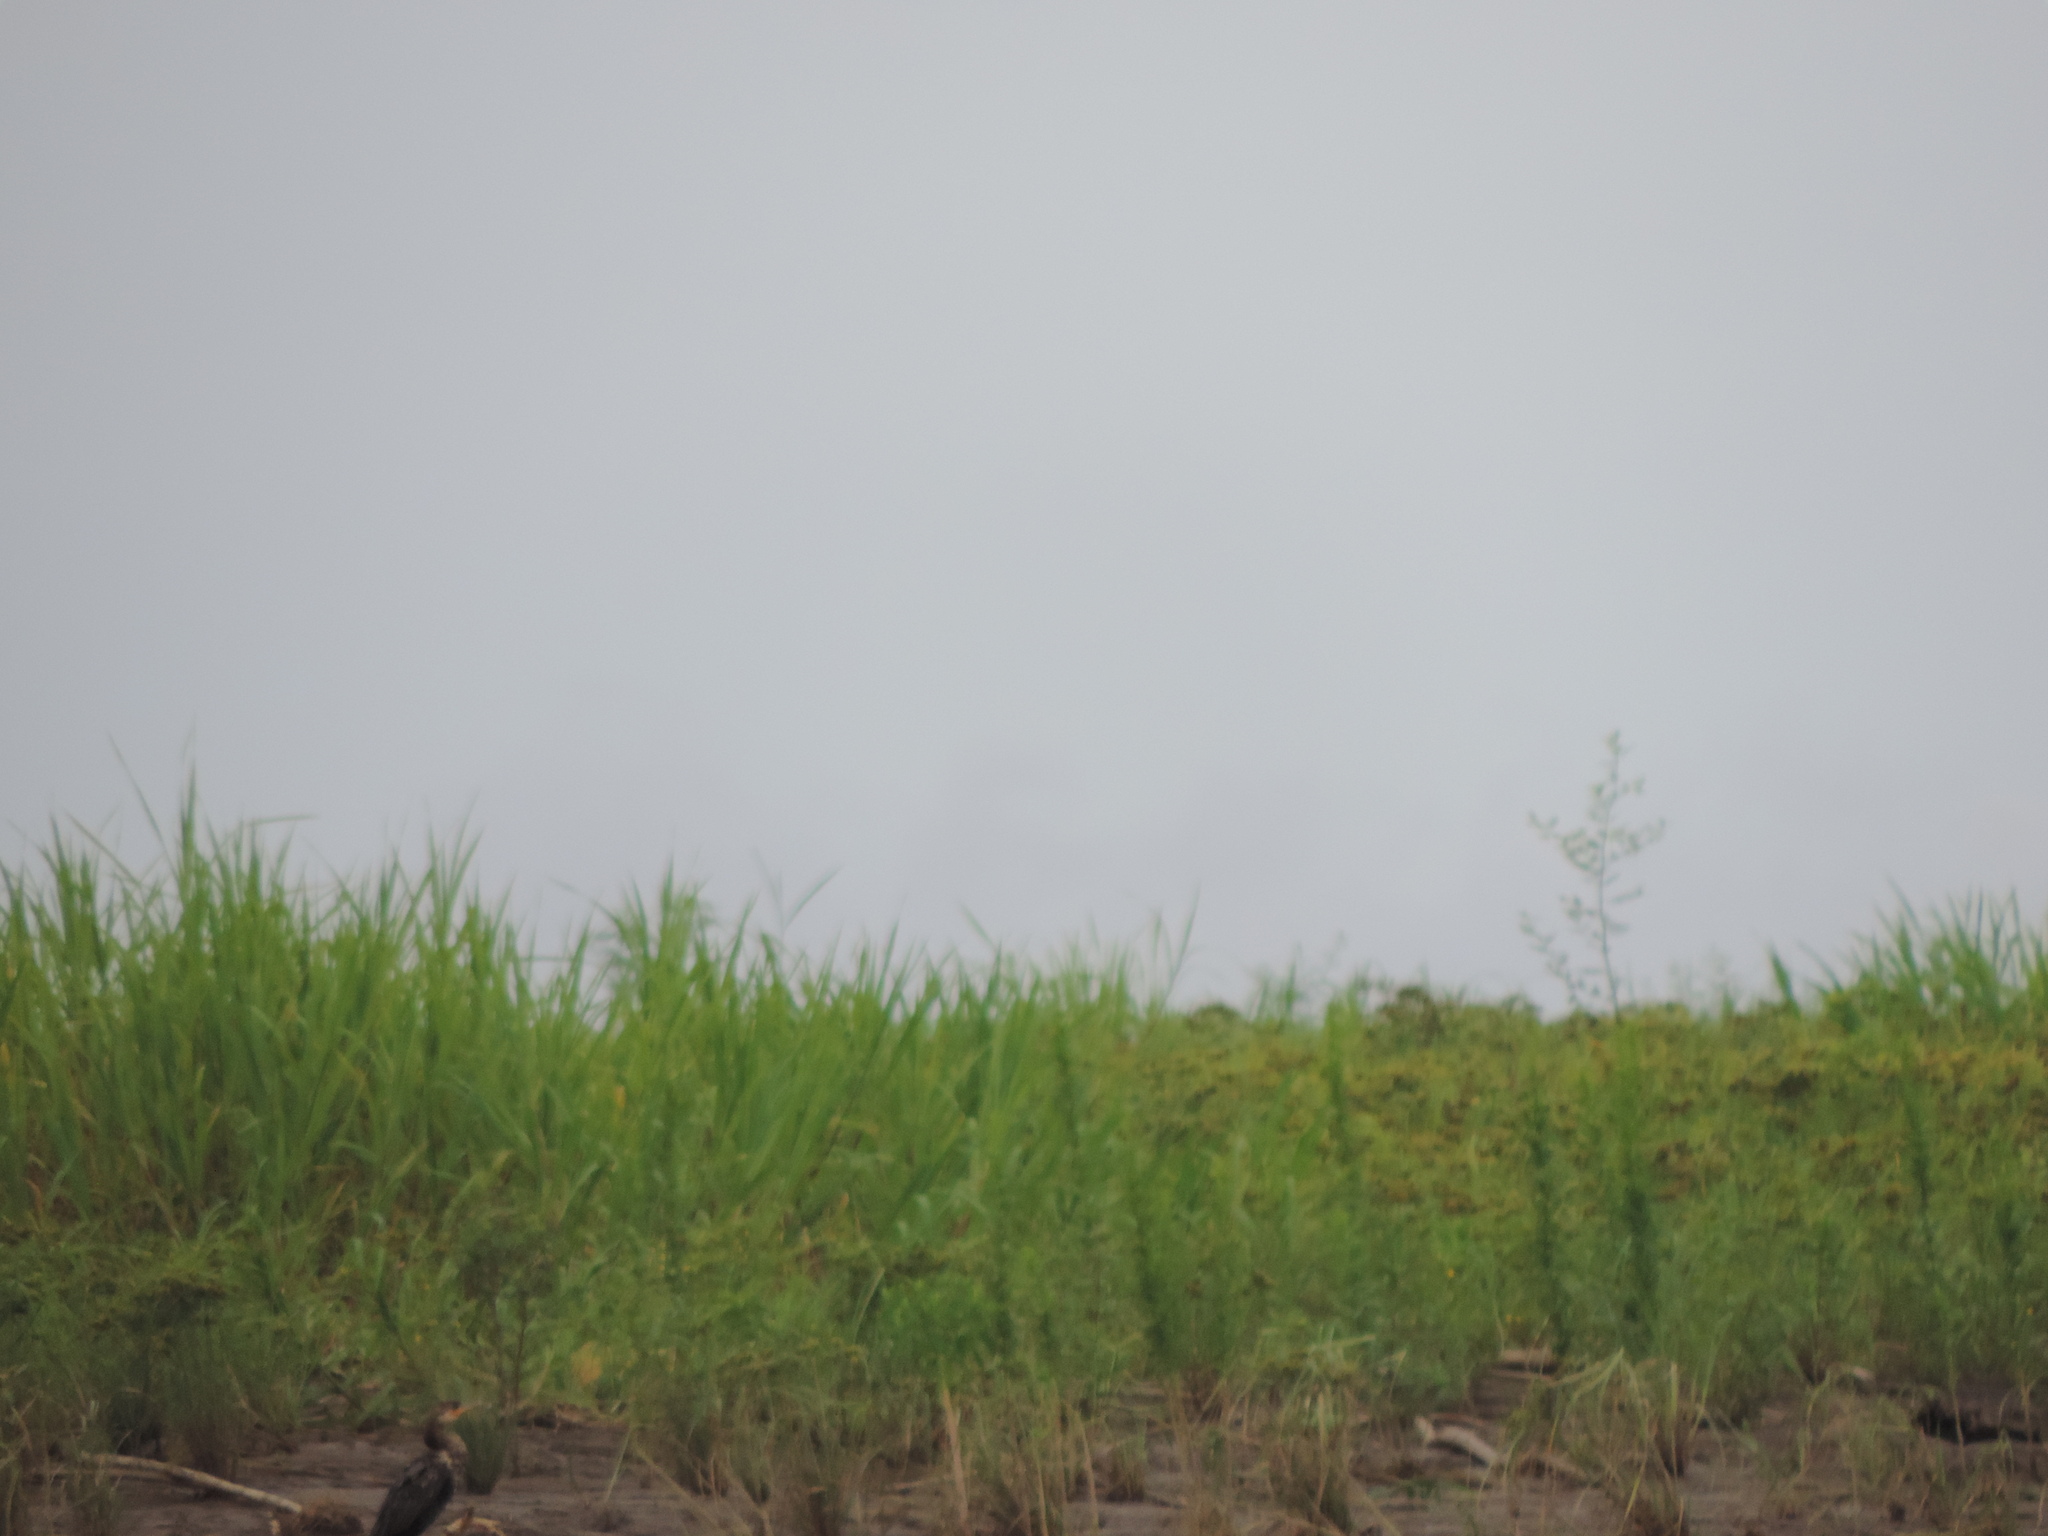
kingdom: Animalia
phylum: Chordata
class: Aves
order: Suliformes
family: Phalacrocoracidae
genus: Phalacrocorax
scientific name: Phalacrocorax brasilianus
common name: Neotropic cormorant
